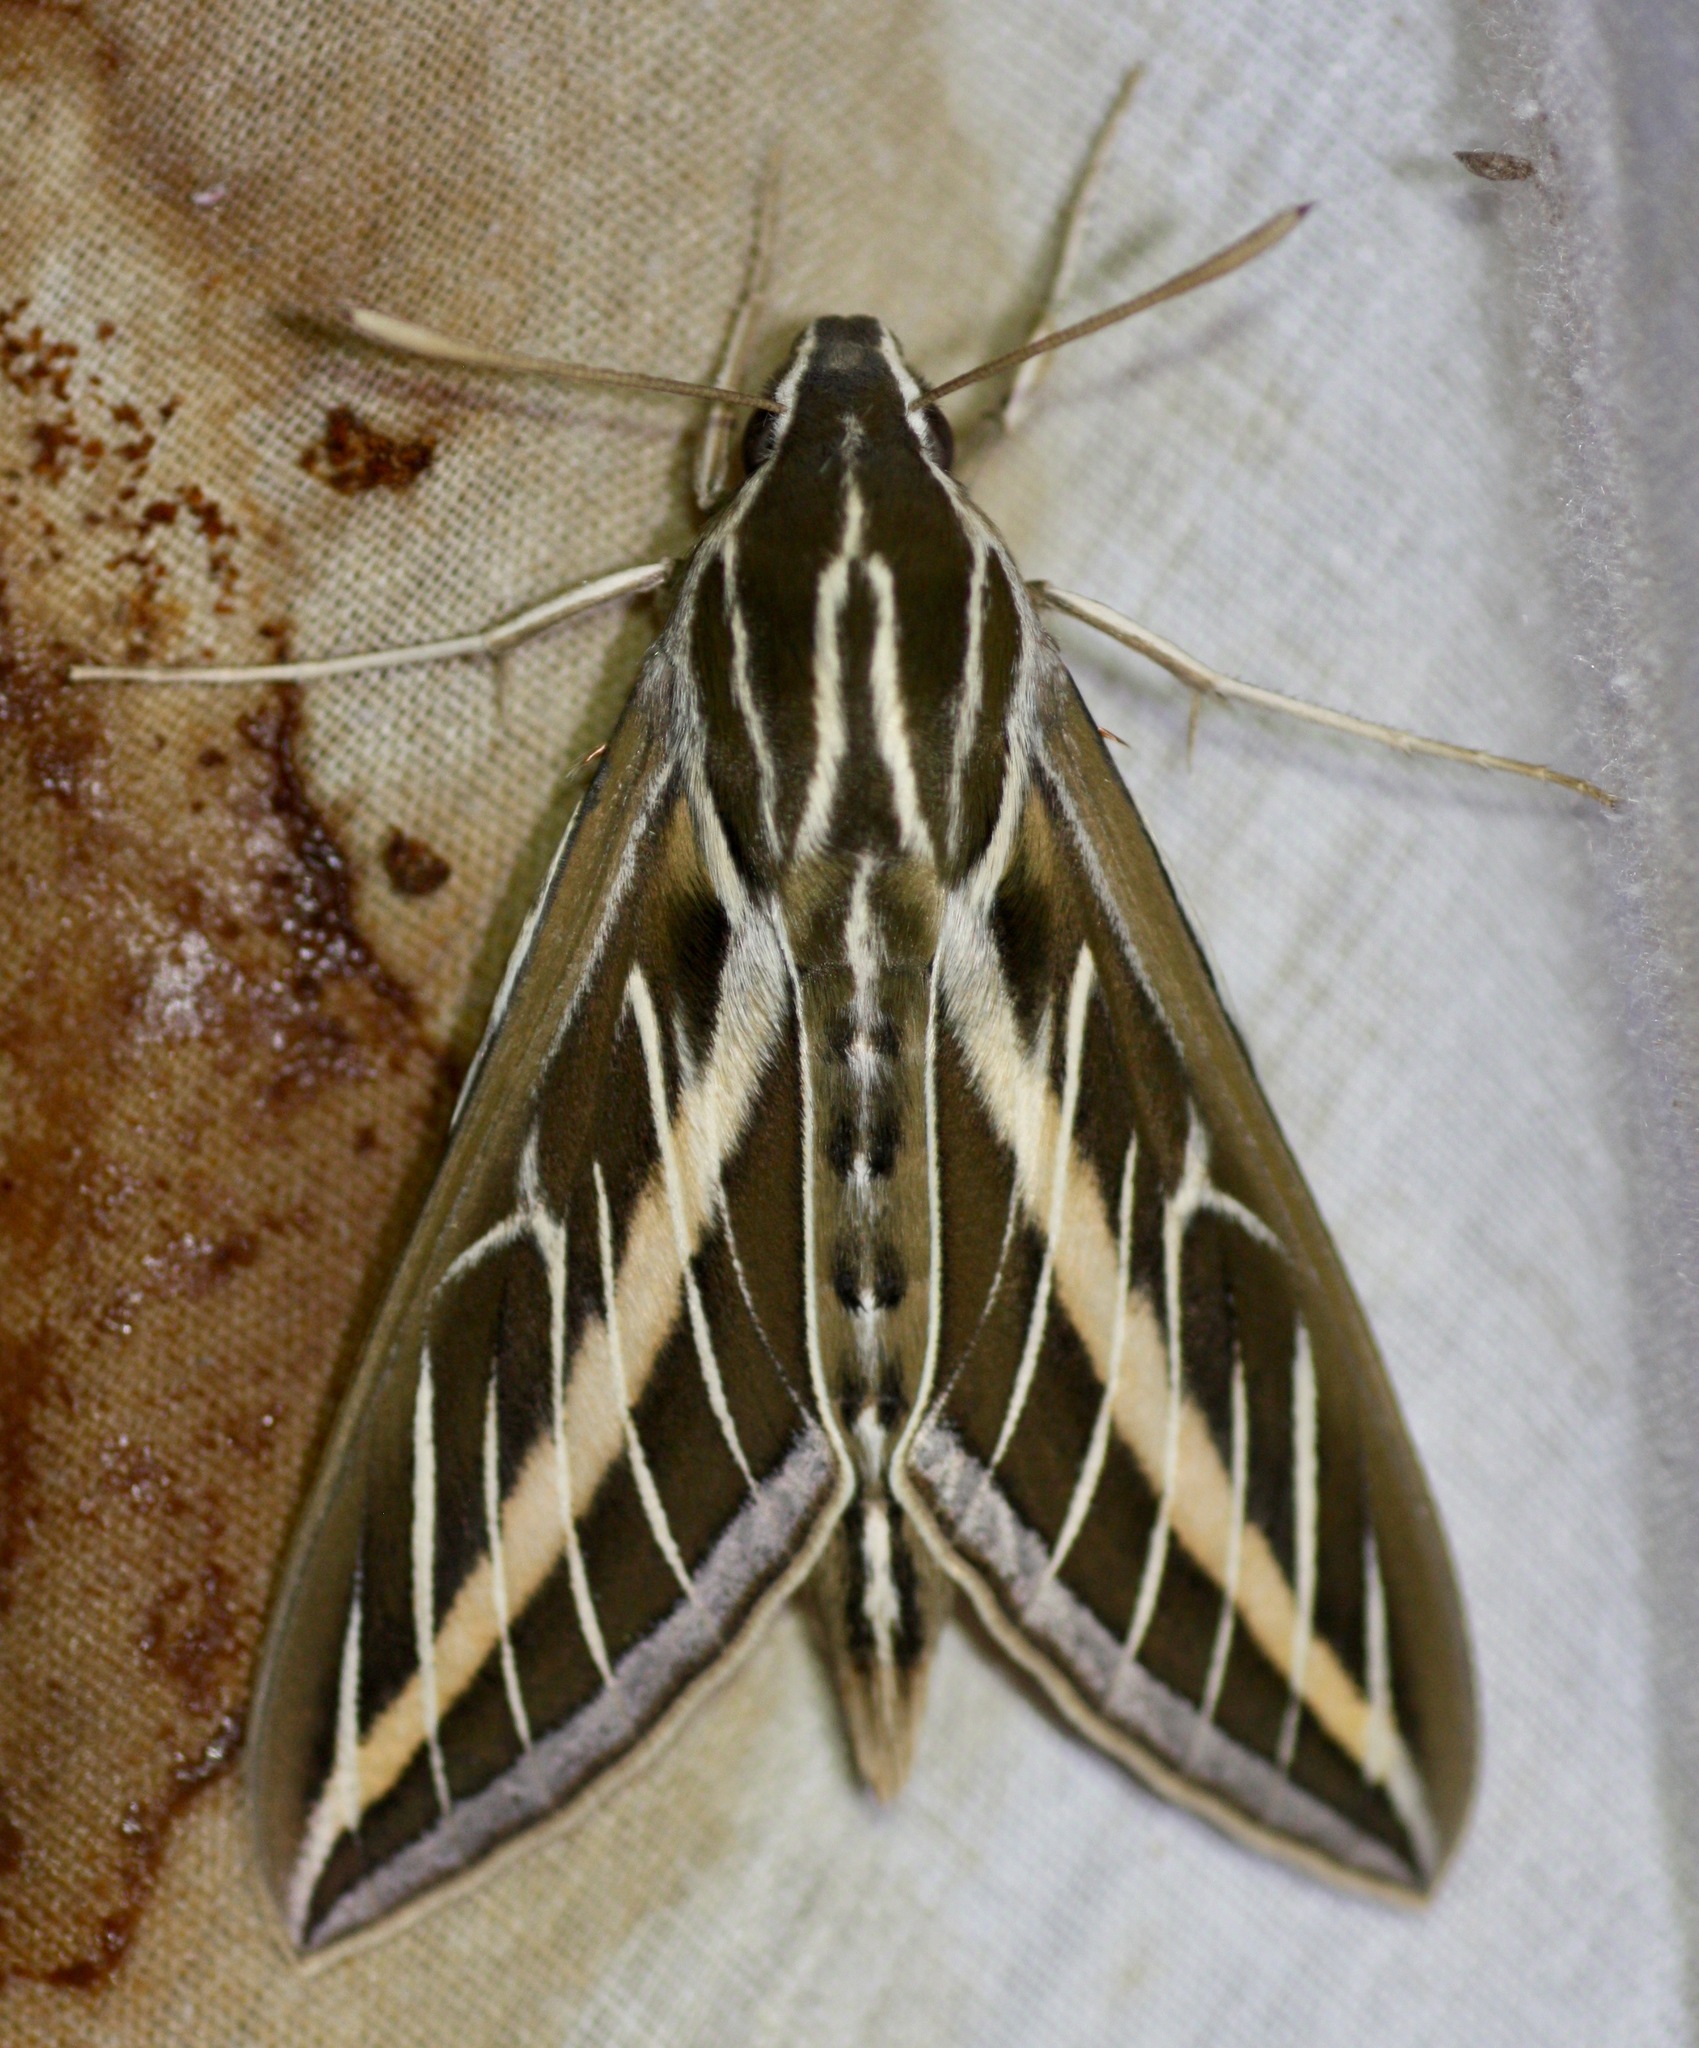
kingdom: Animalia
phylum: Arthropoda
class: Insecta
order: Lepidoptera
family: Sphingidae
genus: Hyles
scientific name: Hyles lineata
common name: White-lined sphinx
